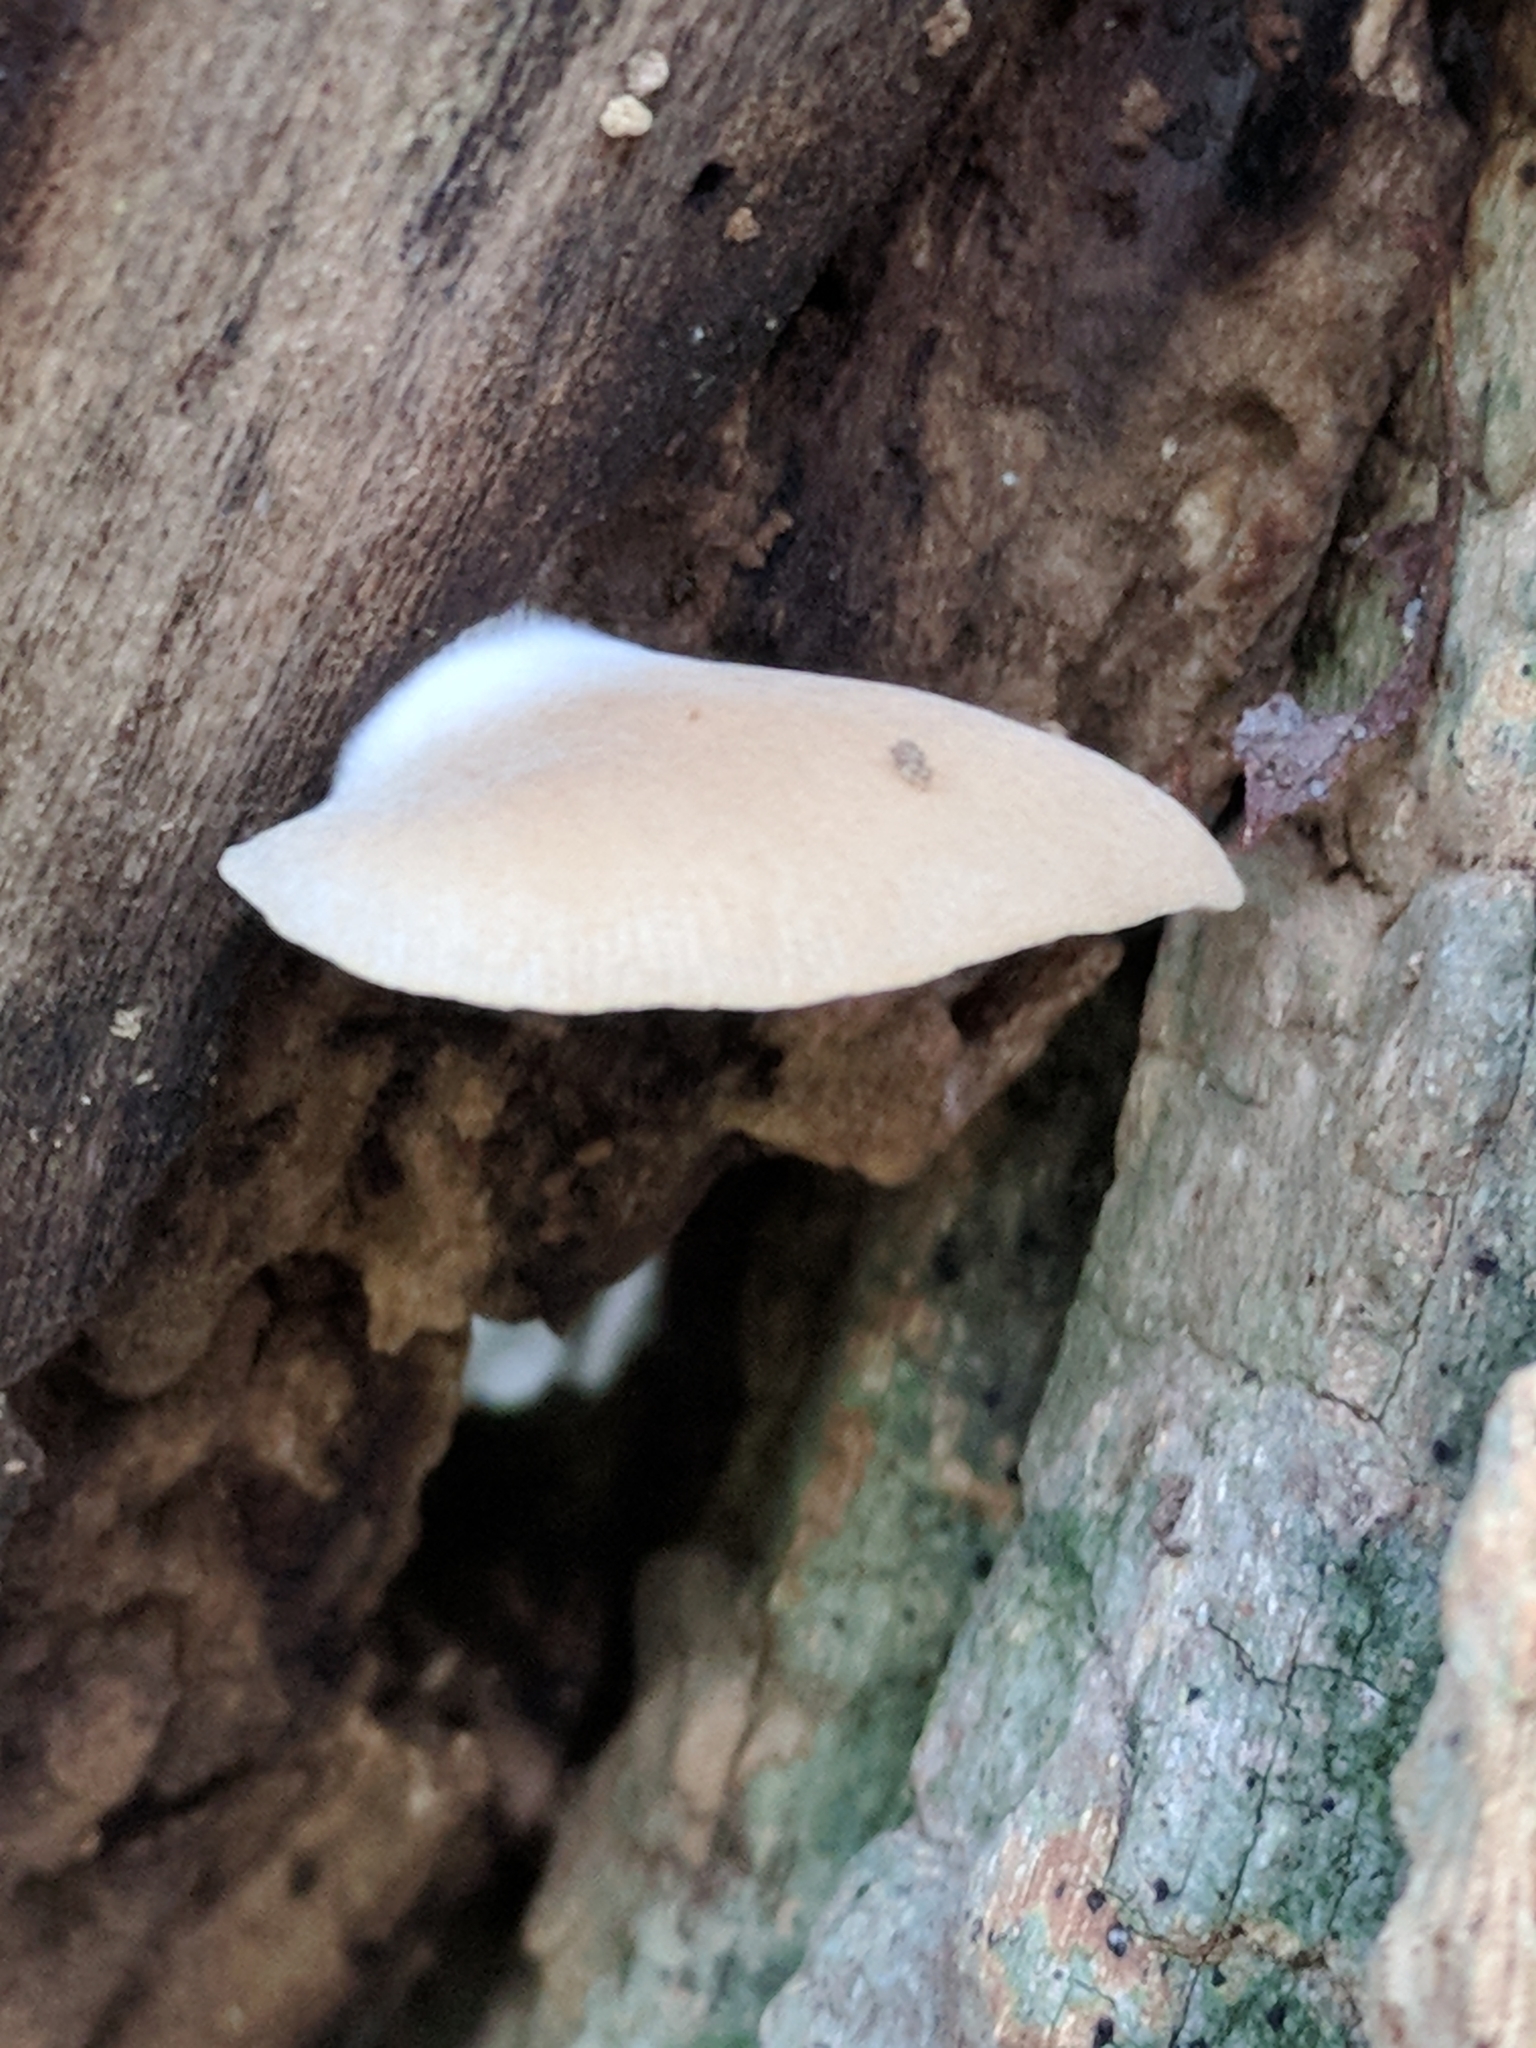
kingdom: Fungi
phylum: Basidiomycota
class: Agaricomycetes
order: Agaricales
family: Crepidotaceae
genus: Crepidotus
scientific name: Crepidotus mollis
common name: Peeling oysterling
